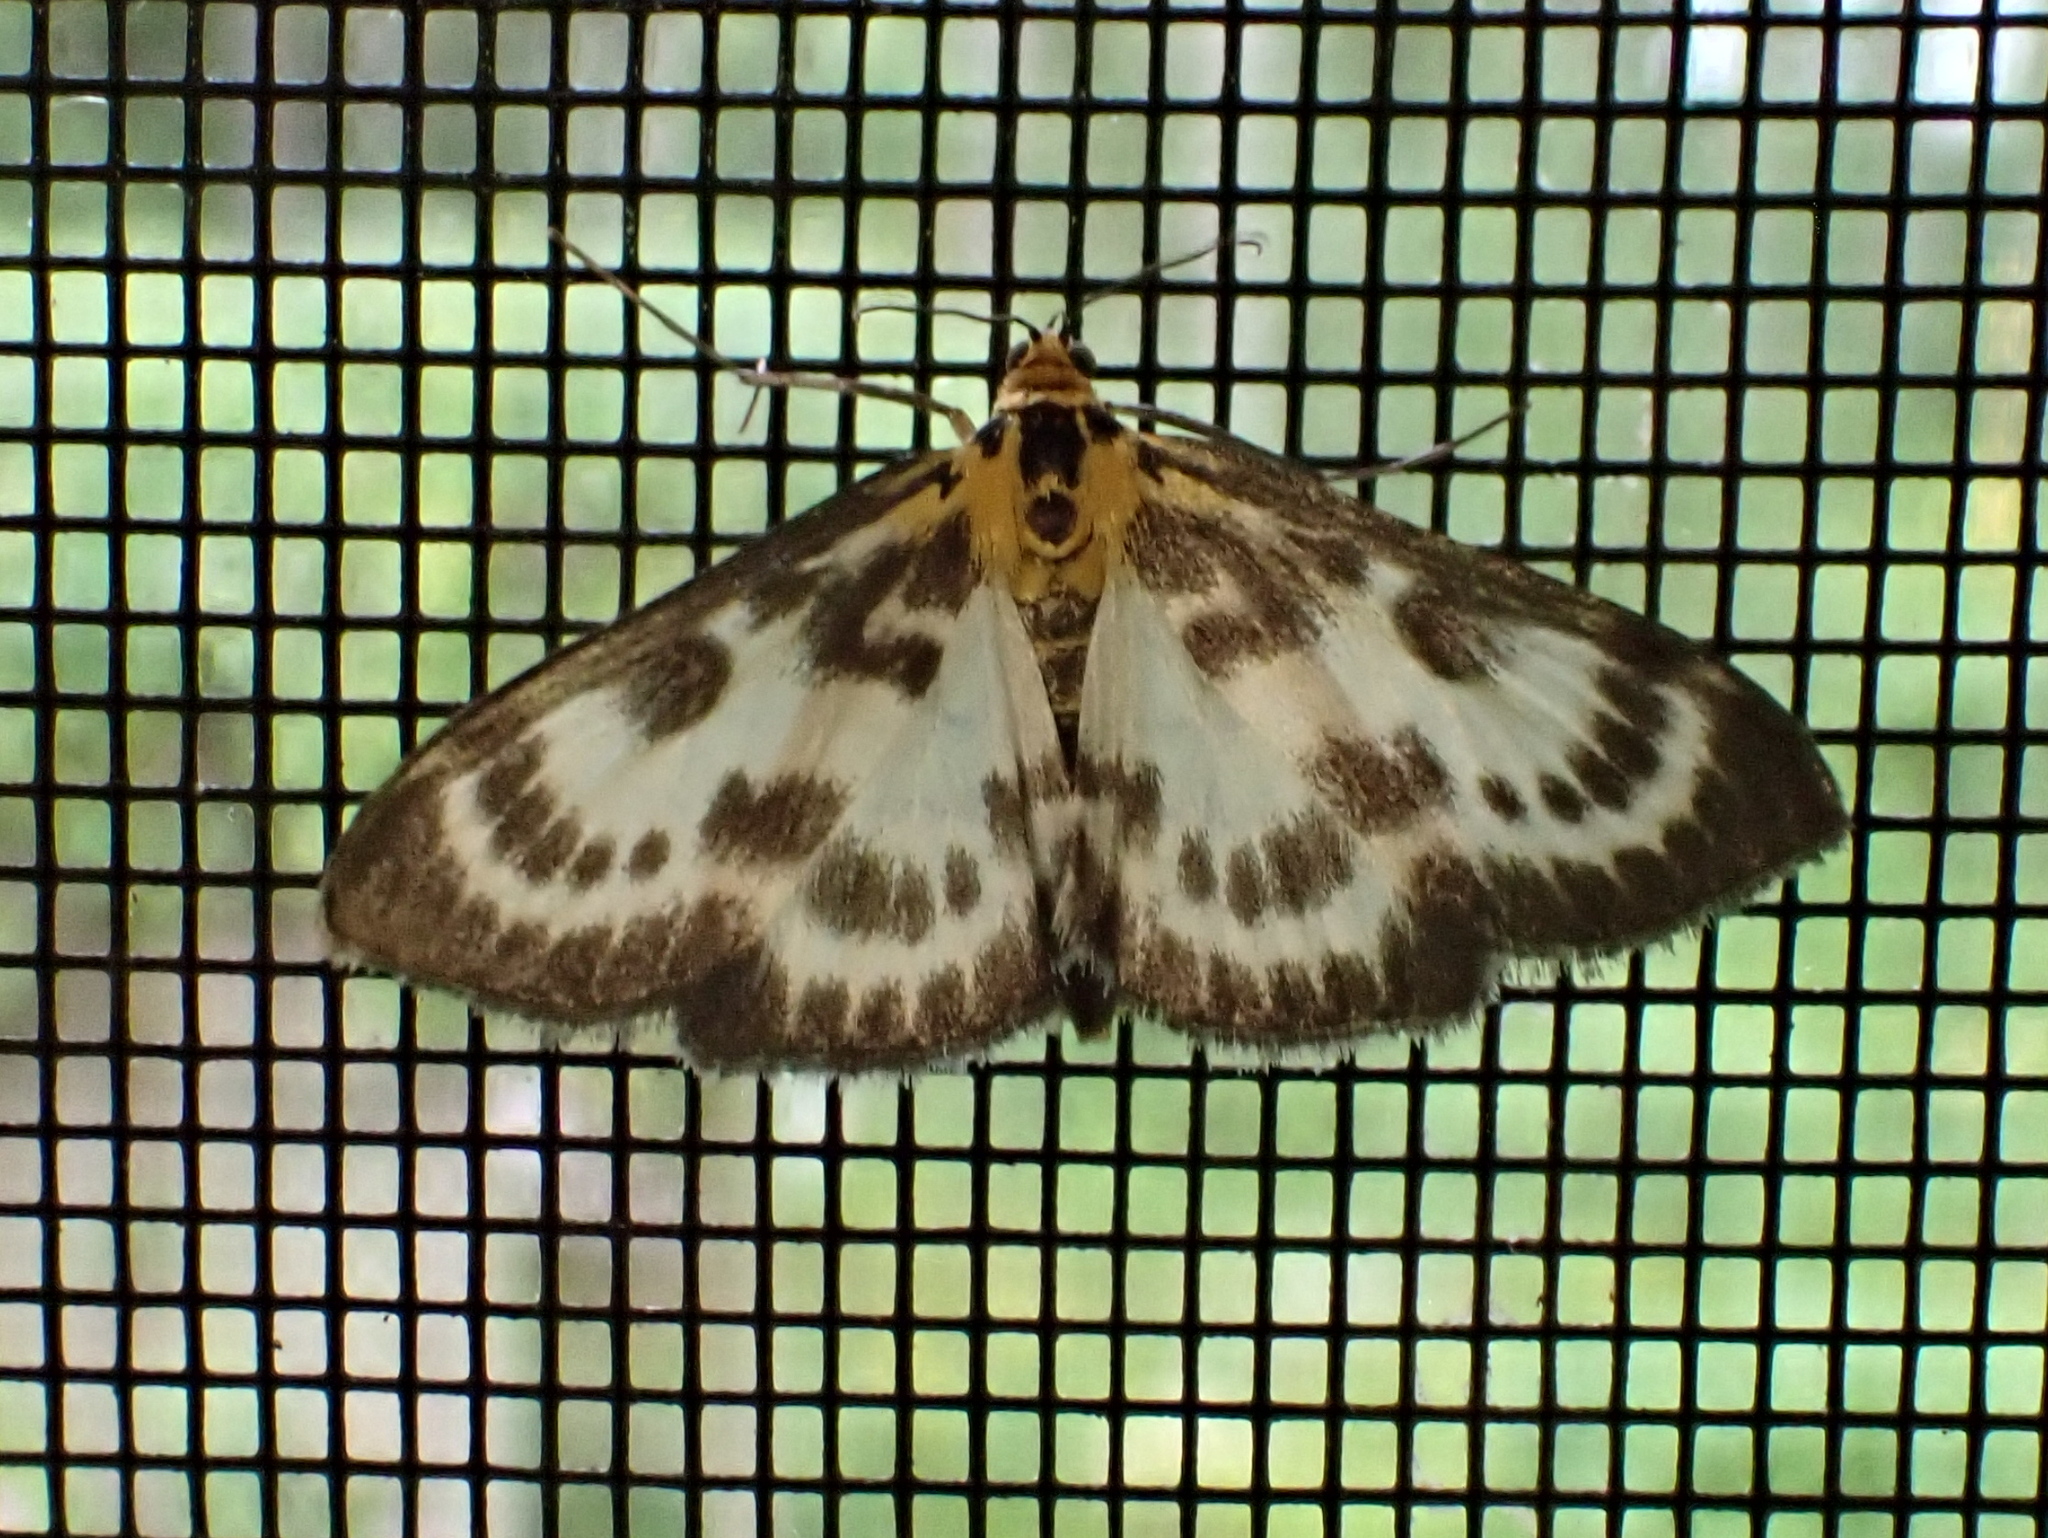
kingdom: Animalia
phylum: Arthropoda
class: Insecta
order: Lepidoptera
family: Crambidae
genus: Anania
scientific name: Anania hortulata
